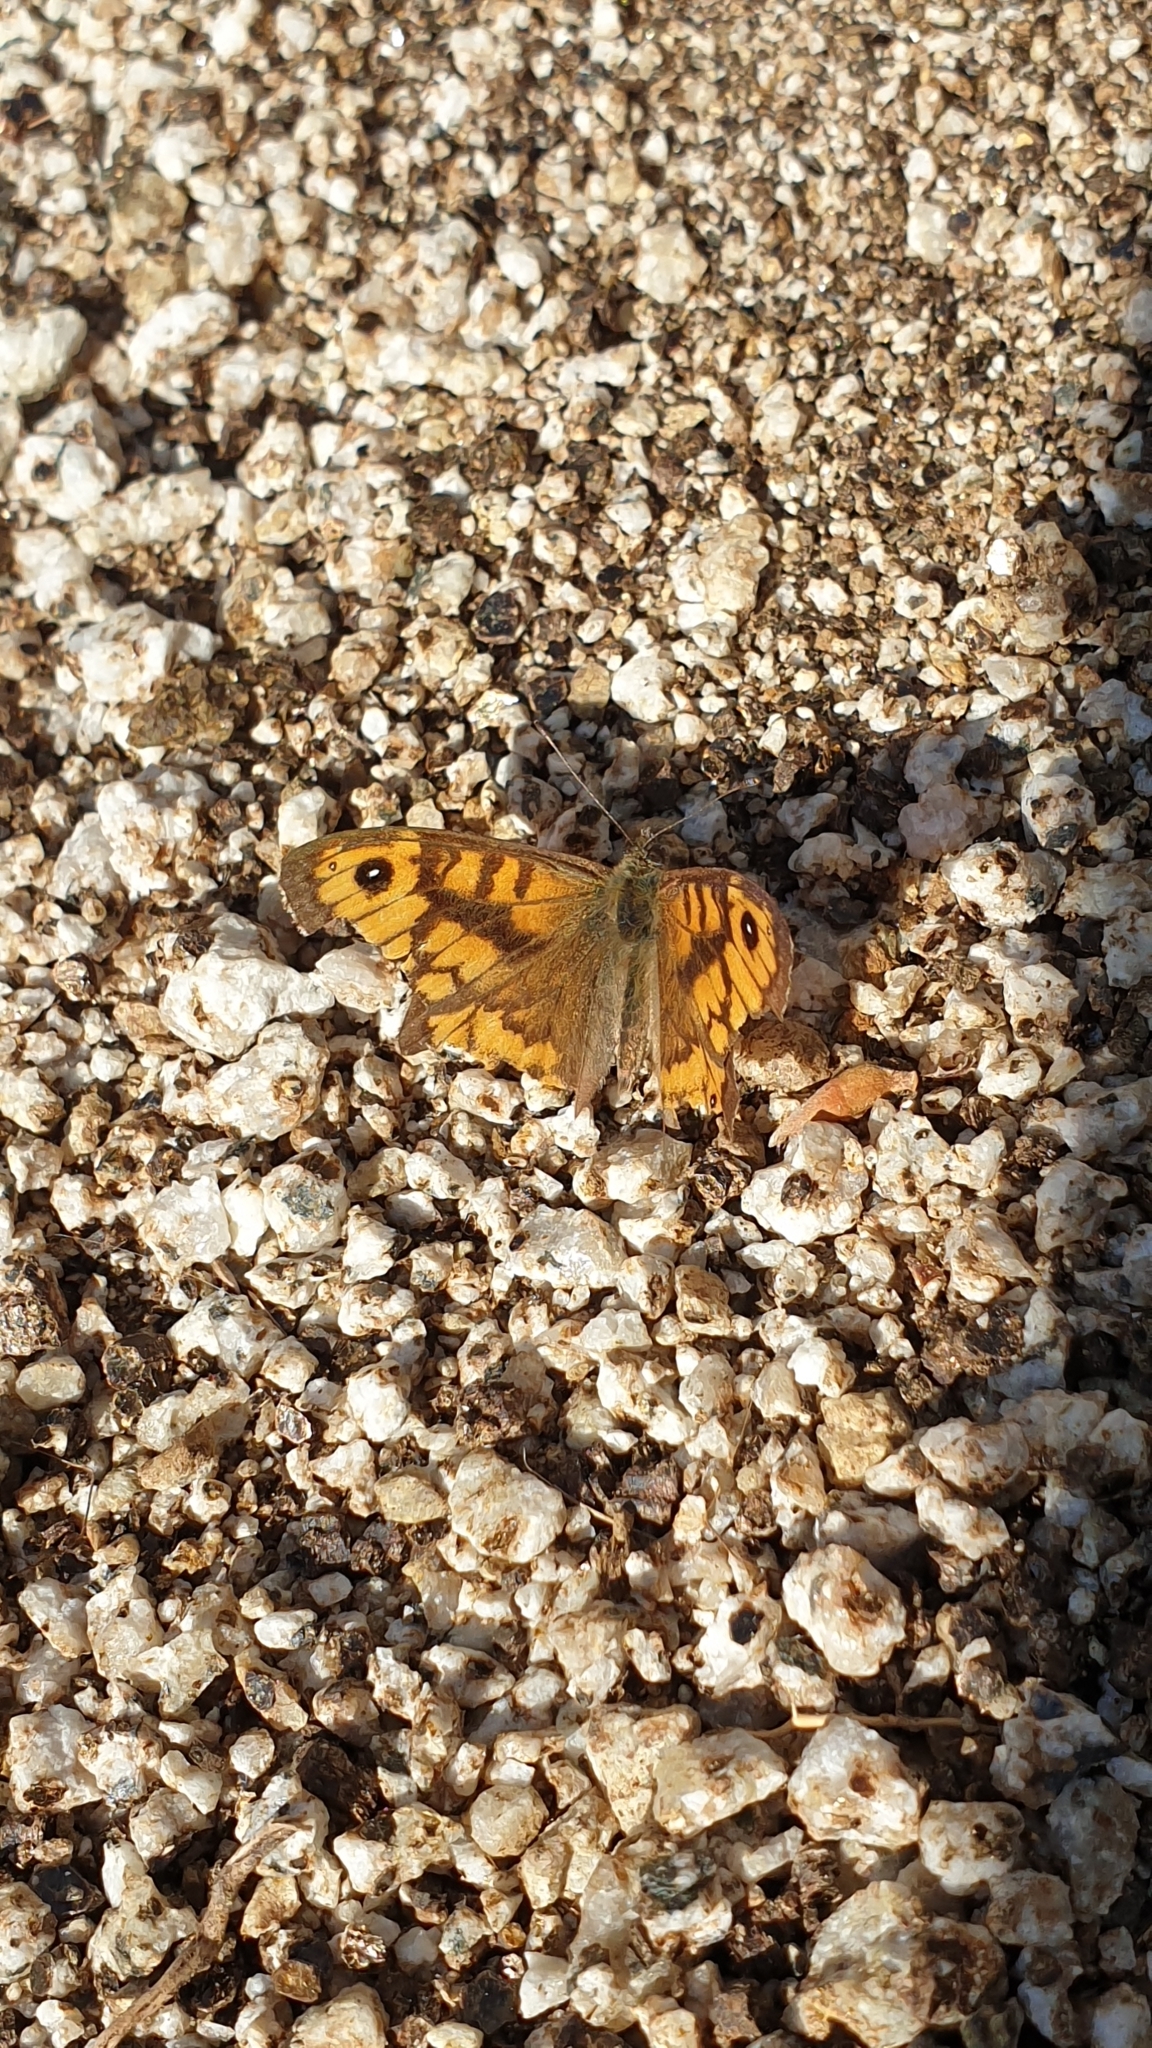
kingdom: Animalia
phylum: Arthropoda
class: Insecta
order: Lepidoptera
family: Nymphalidae
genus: Pararge
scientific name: Pararge Lasiommata megera
